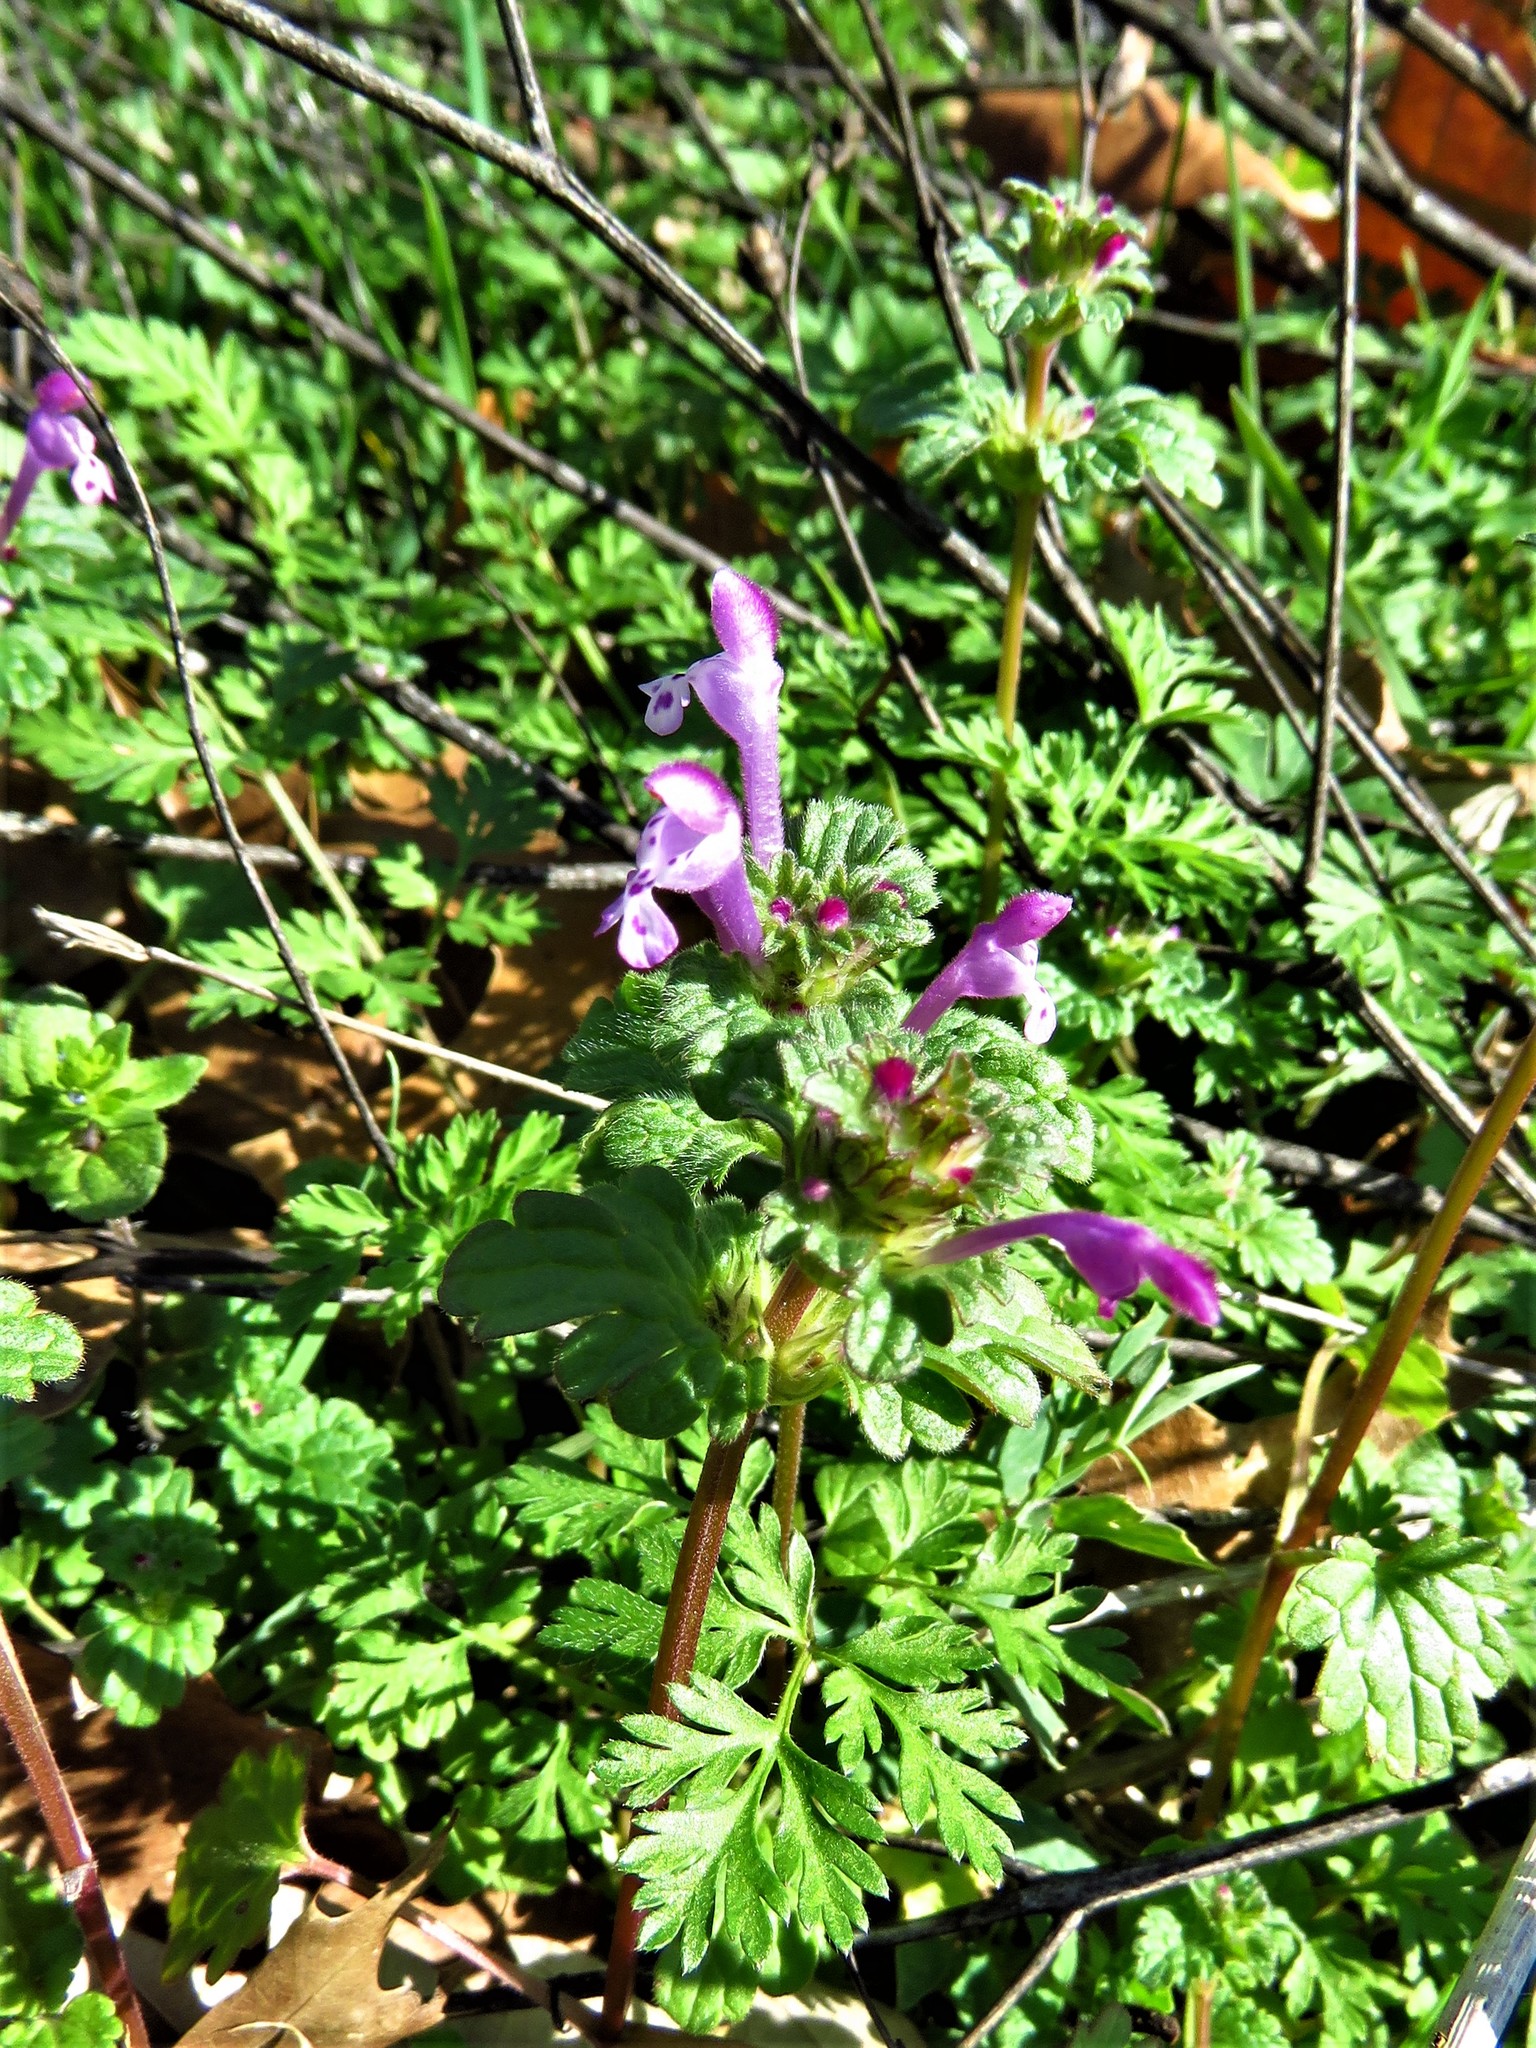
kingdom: Plantae
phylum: Tracheophyta
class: Magnoliopsida
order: Lamiales
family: Lamiaceae
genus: Lamium
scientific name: Lamium amplexicaule
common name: Henbit dead-nettle
